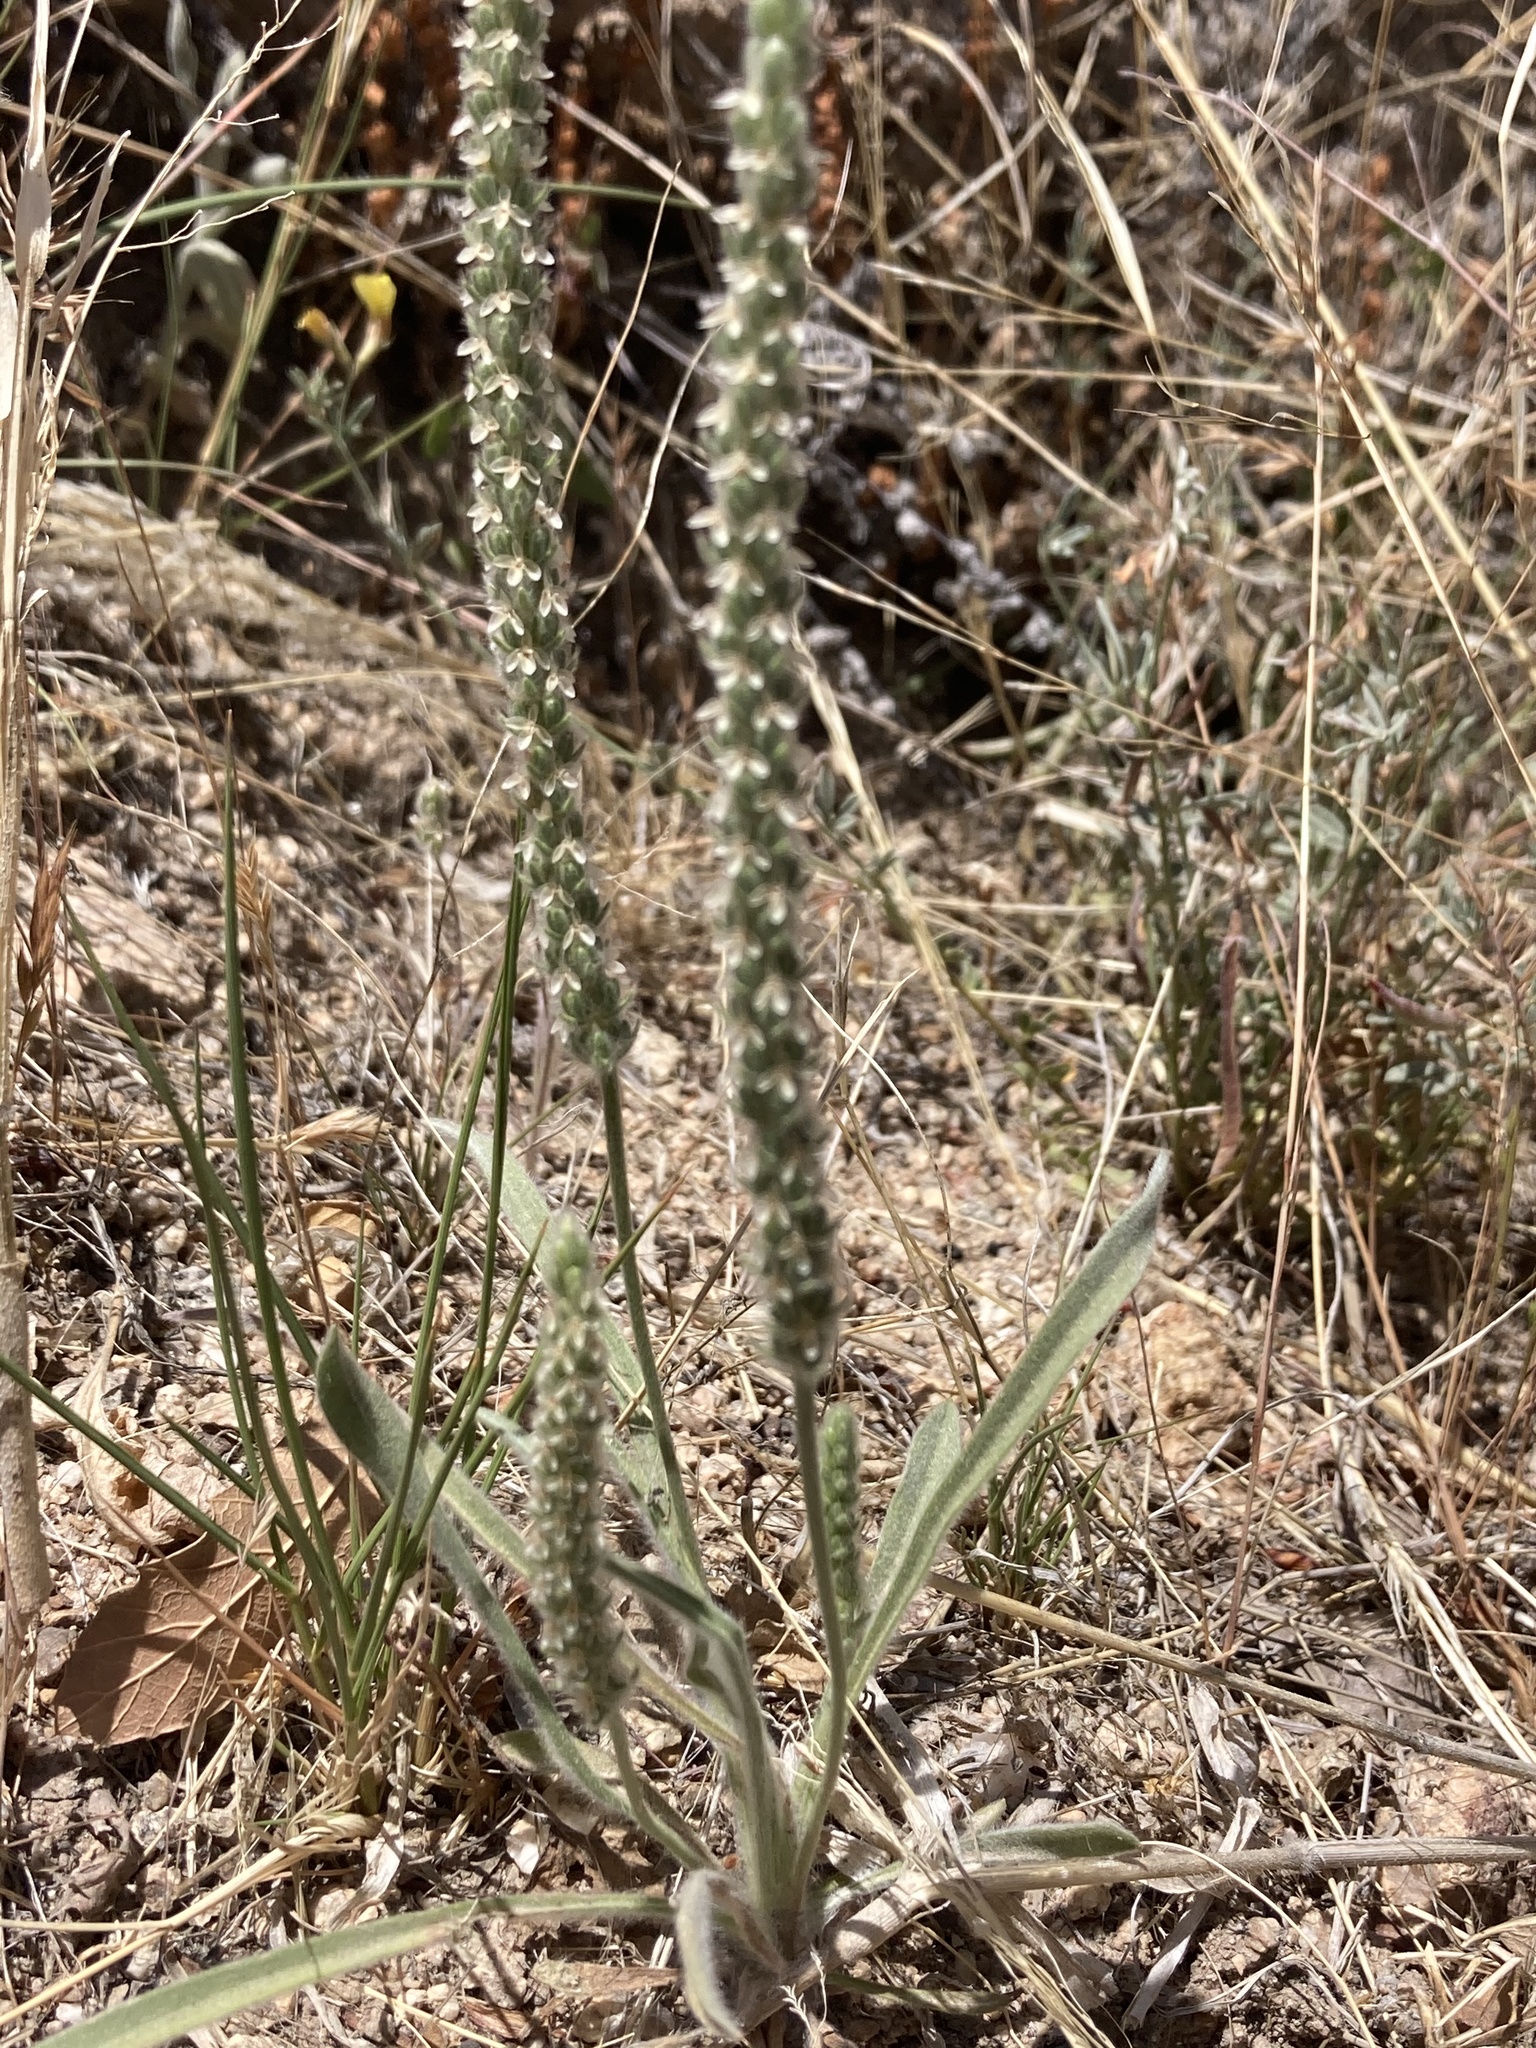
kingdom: Plantae
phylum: Tracheophyta
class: Magnoliopsida
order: Lamiales
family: Plantaginaceae
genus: Plantago
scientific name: Plantago patagonica
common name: Patagonia indian-wheat
